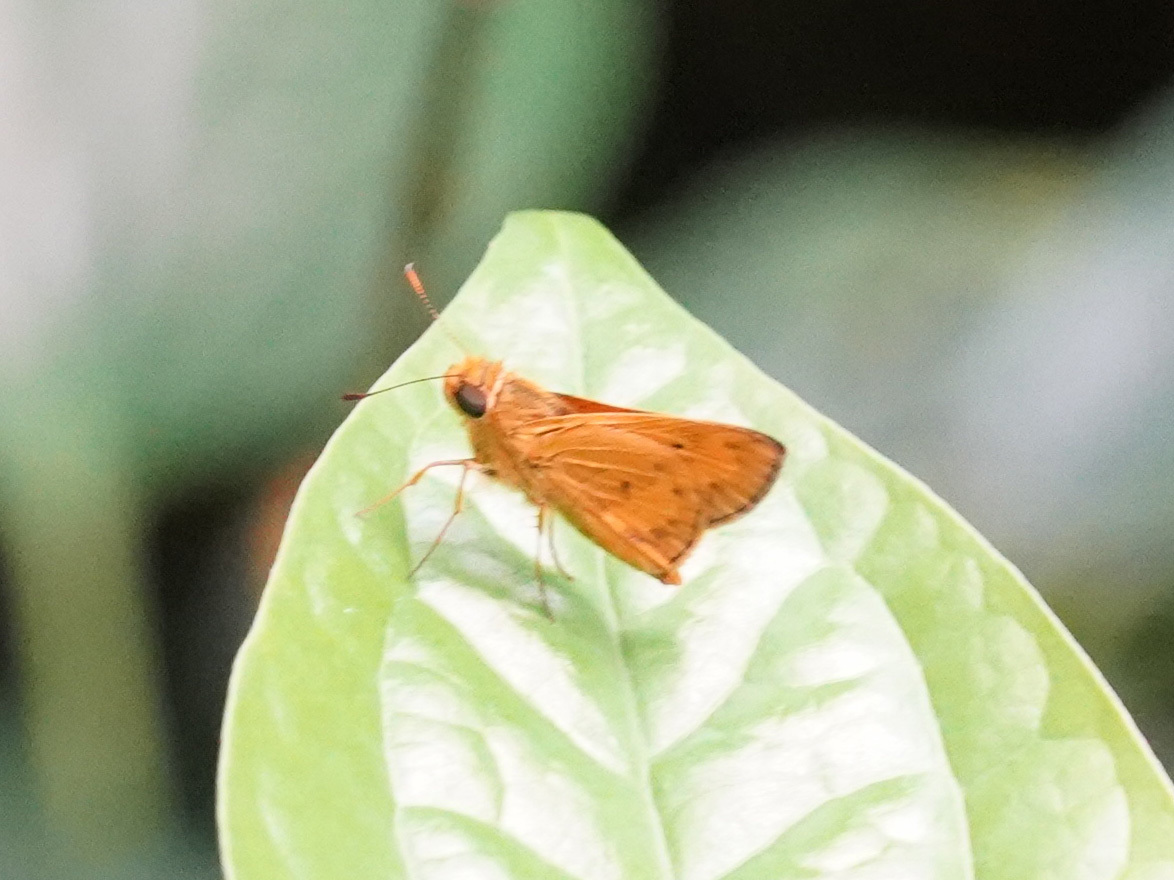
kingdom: Animalia
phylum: Arthropoda
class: Insecta
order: Lepidoptera
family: Hesperiidae
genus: Oriens
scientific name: Oriens gola
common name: Common dartlet
